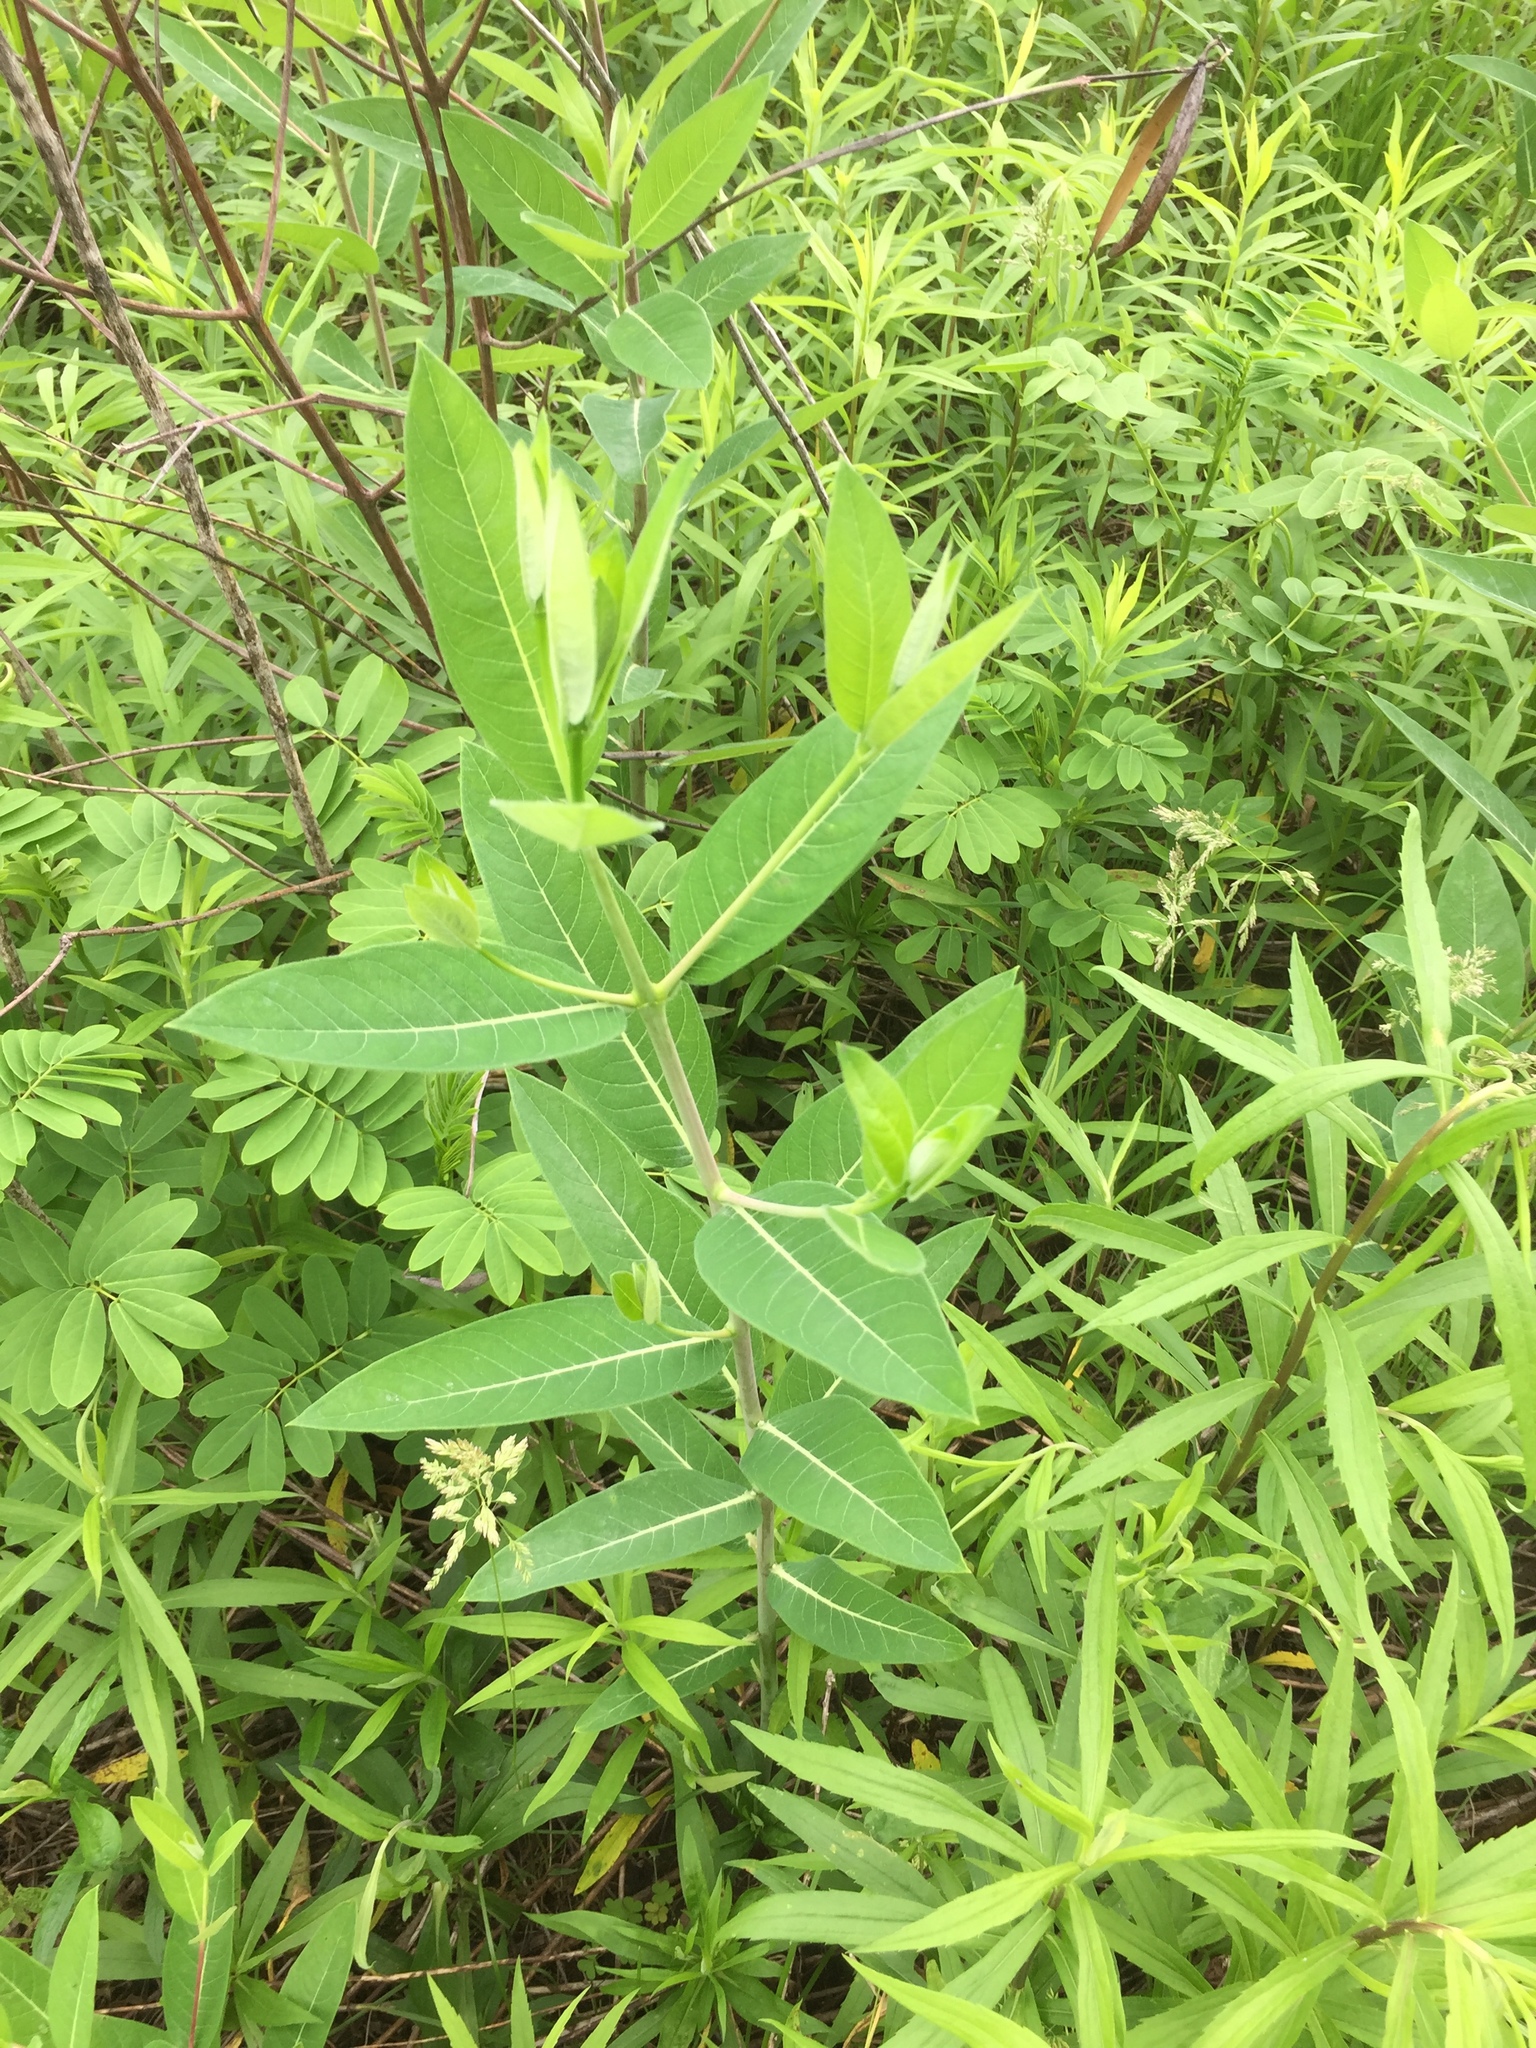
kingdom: Plantae
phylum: Tracheophyta
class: Magnoliopsida
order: Gentianales
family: Apocynaceae
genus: Apocynum
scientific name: Apocynum cannabinum
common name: Hemp dogbane
